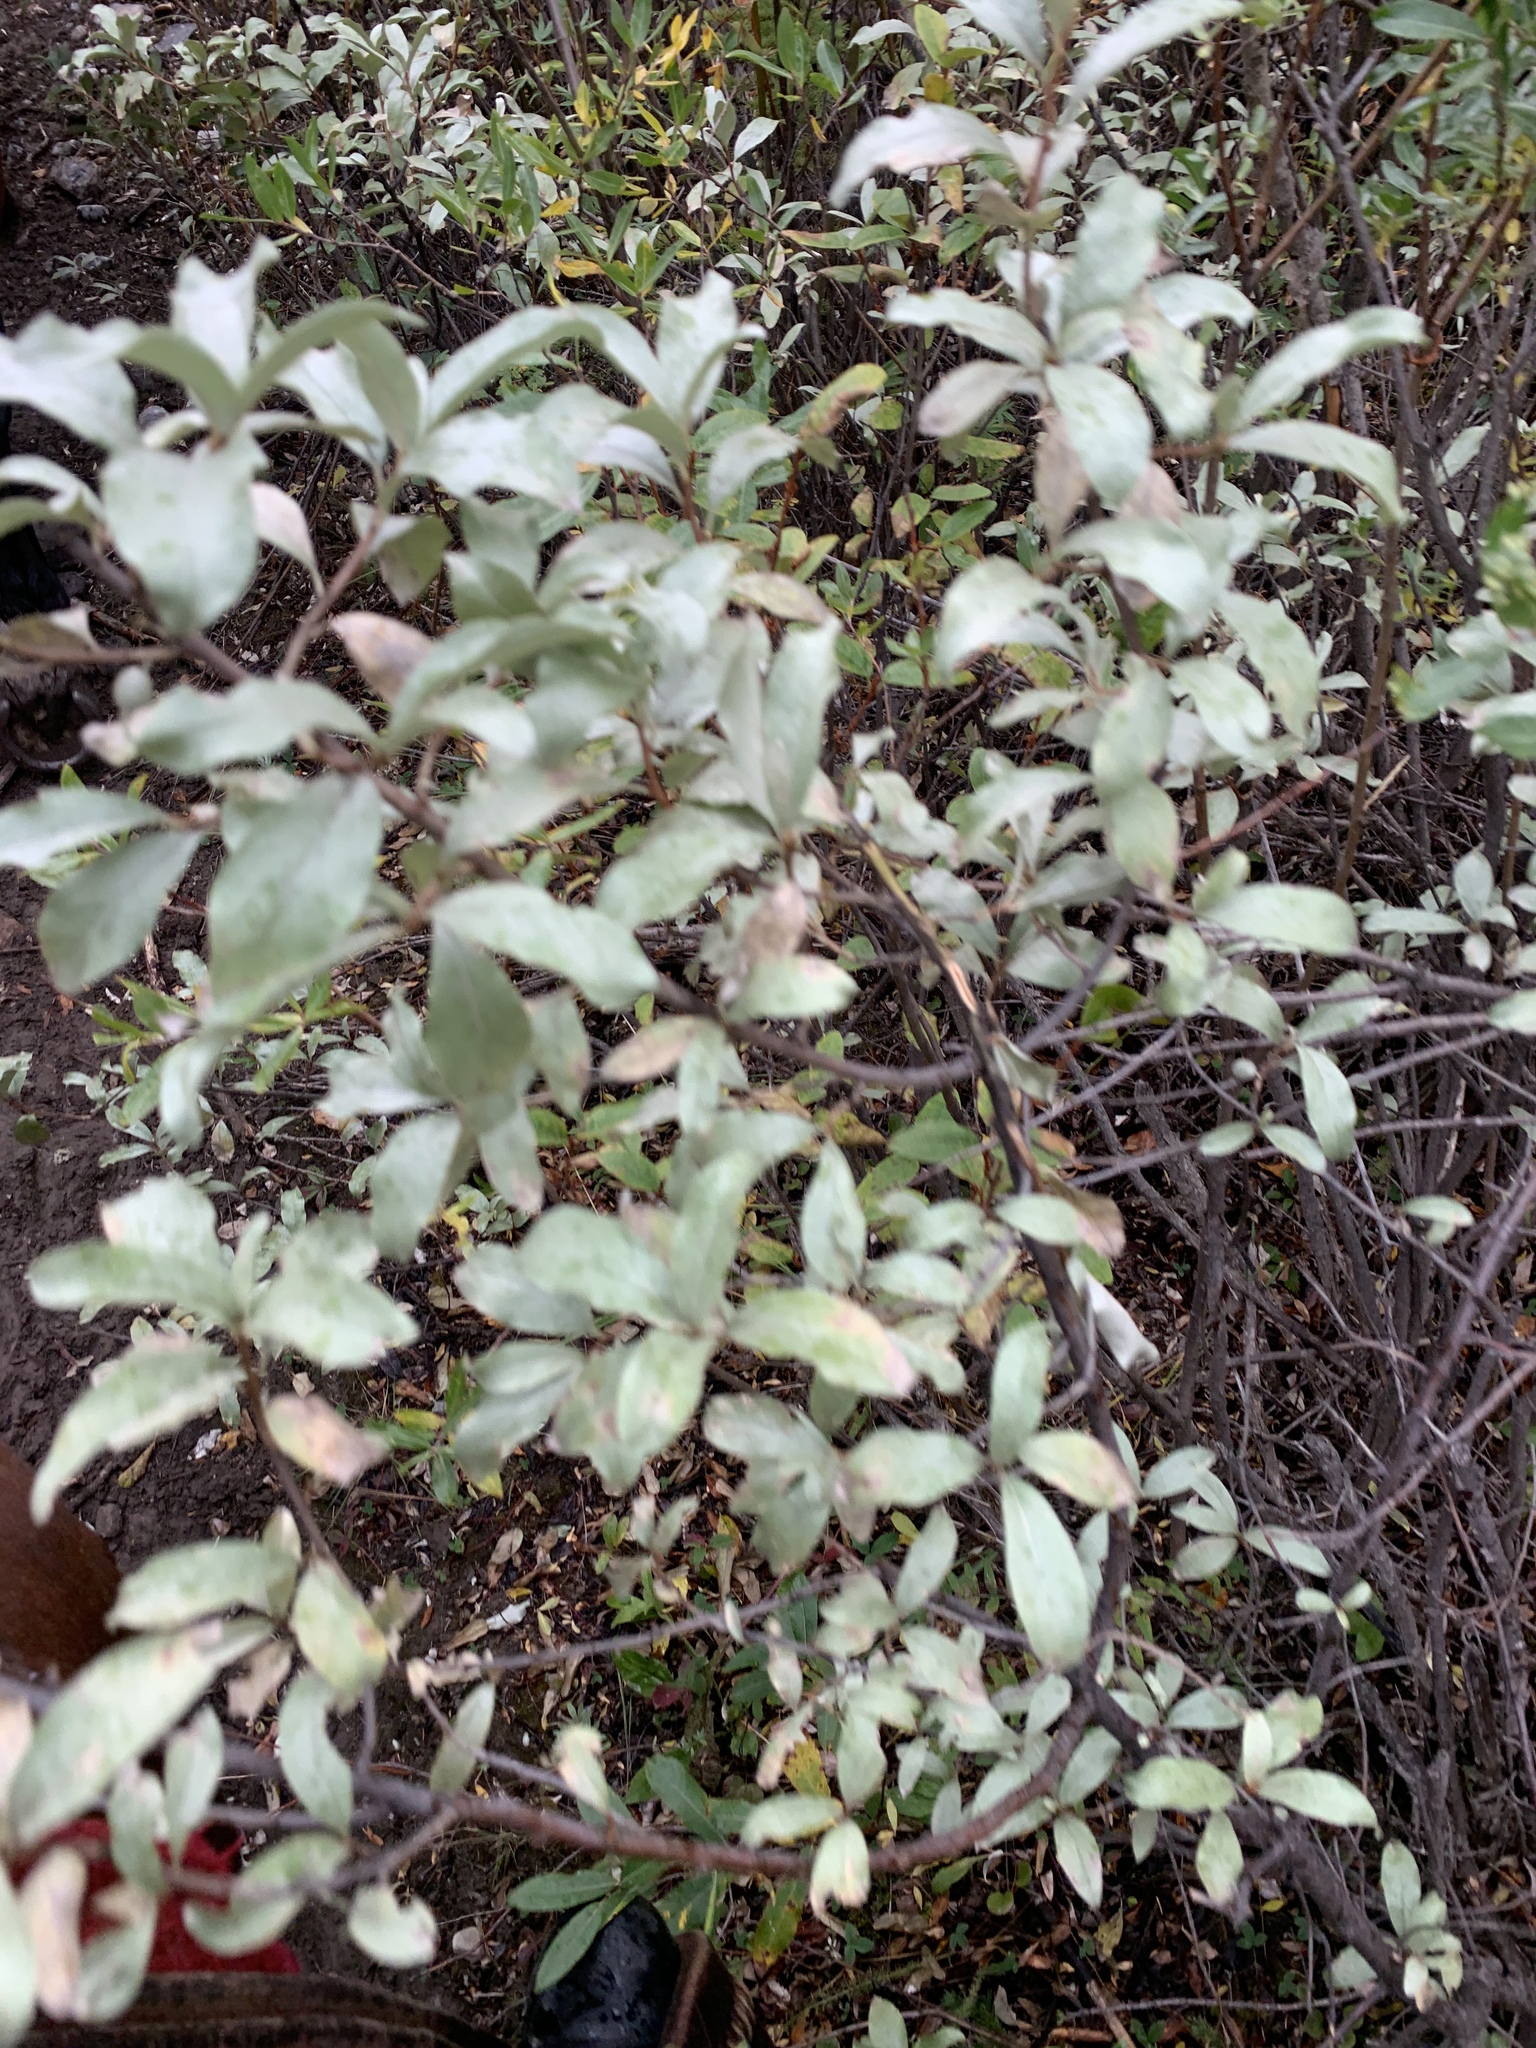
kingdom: Plantae
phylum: Tracheophyta
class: Magnoliopsida
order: Rosales
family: Elaeagnaceae
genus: Elaeagnus
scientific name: Elaeagnus commutata
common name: Silverberry
